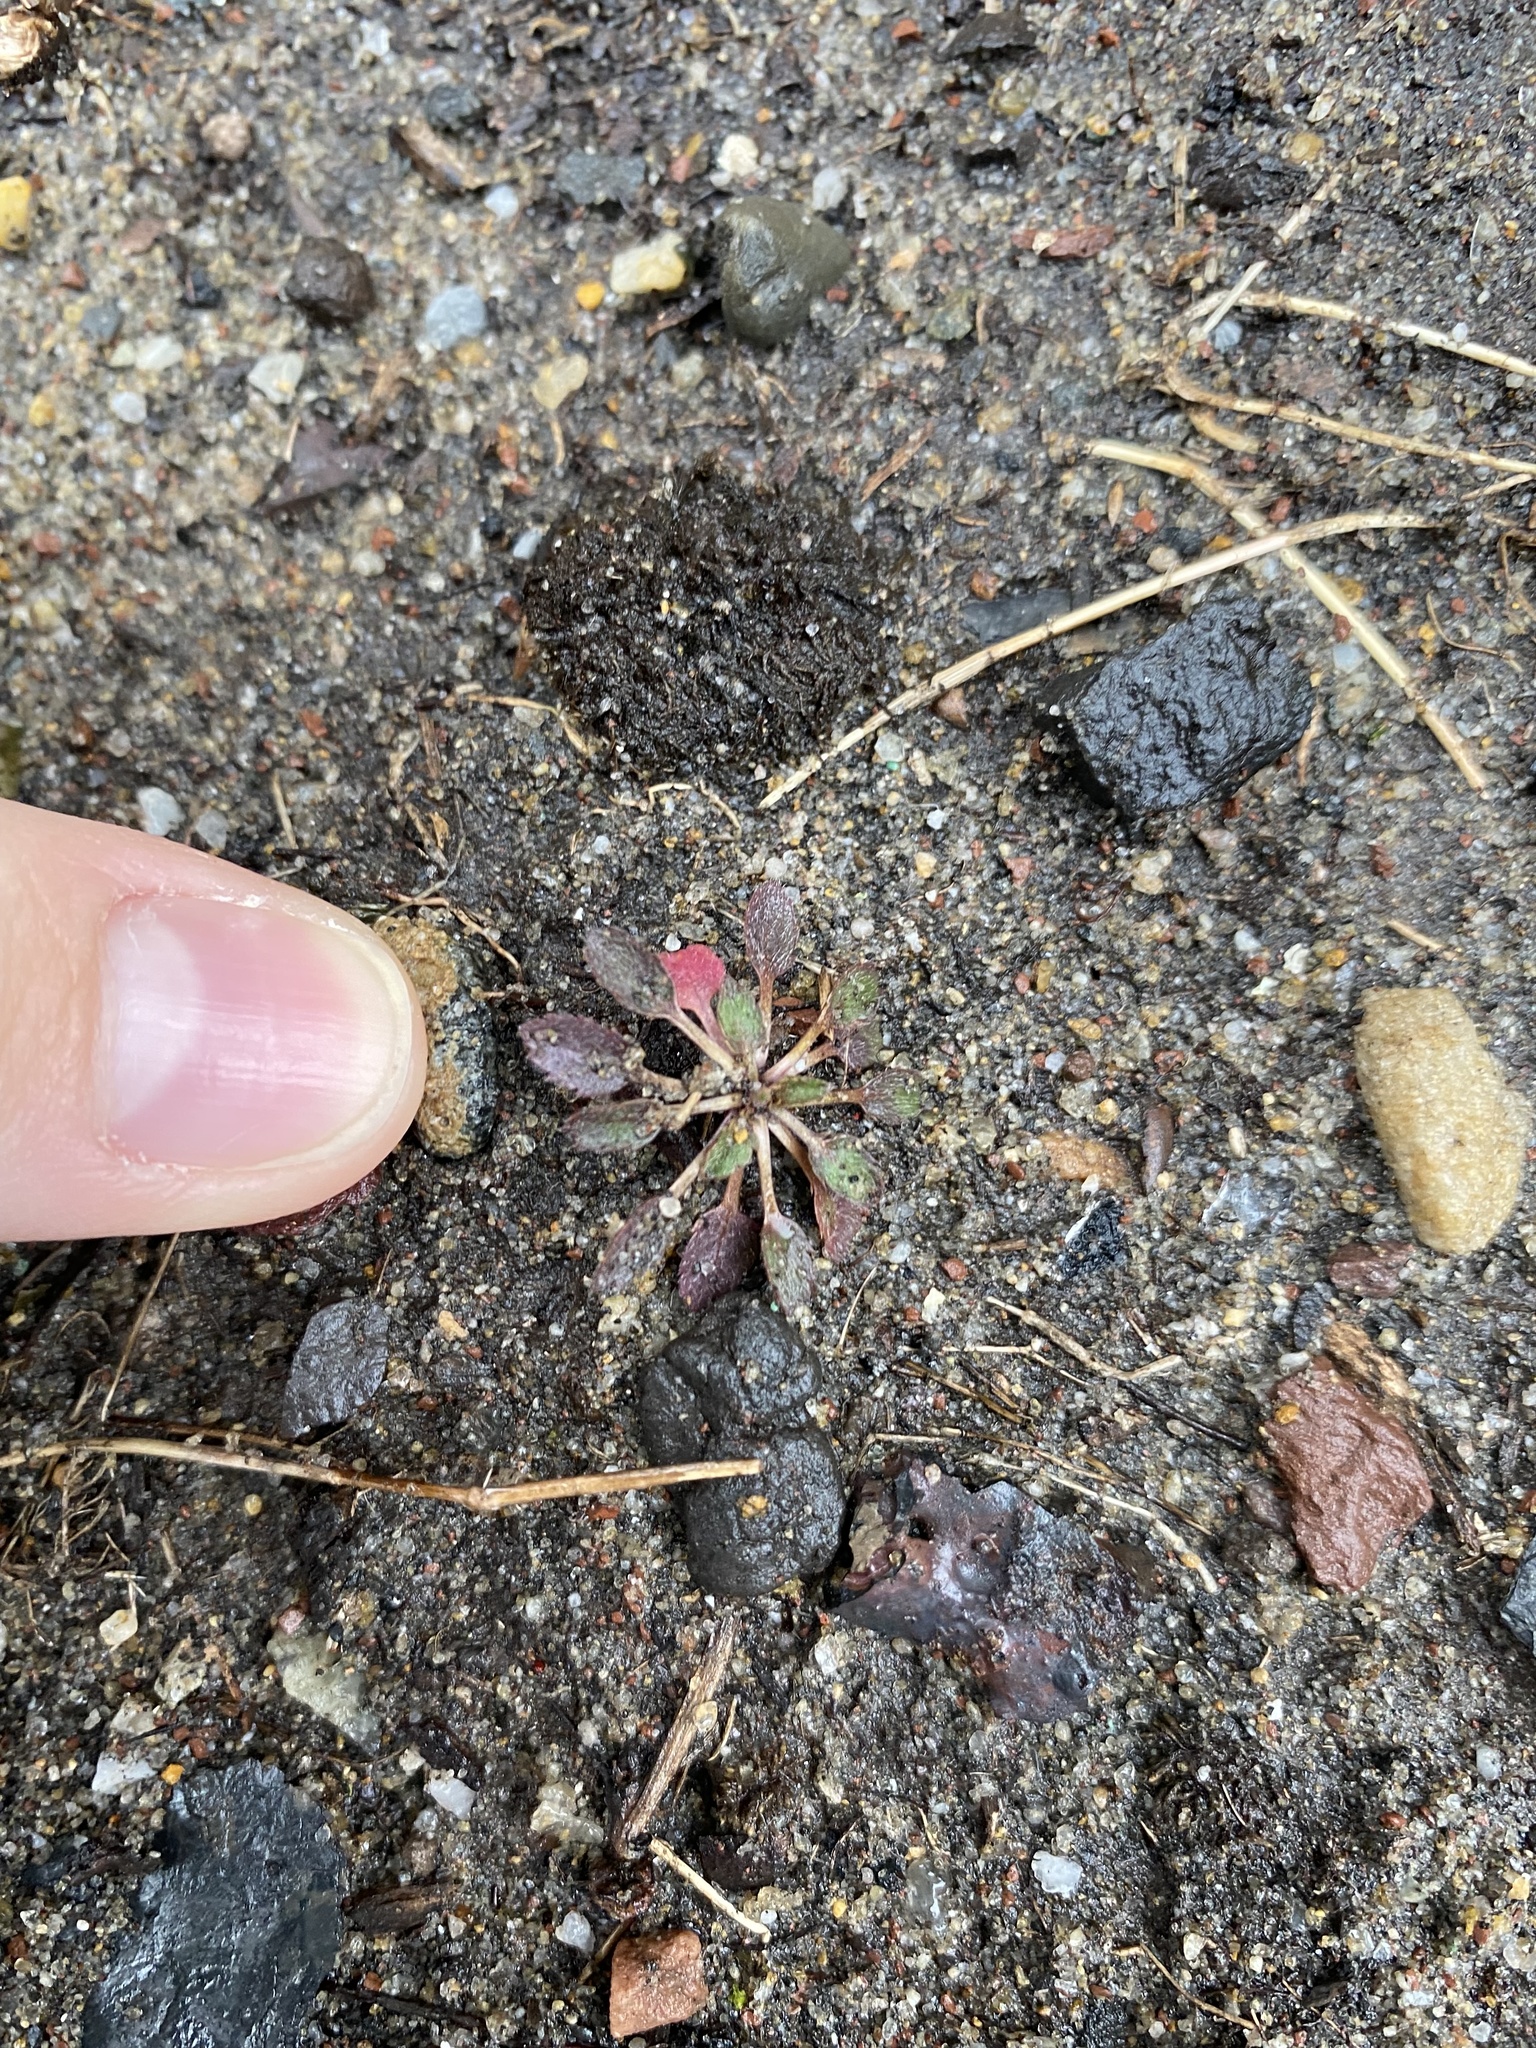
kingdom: Plantae
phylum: Tracheophyta
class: Magnoliopsida
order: Brassicales
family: Brassicaceae
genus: Draba
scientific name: Draba verna
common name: Spring draba
